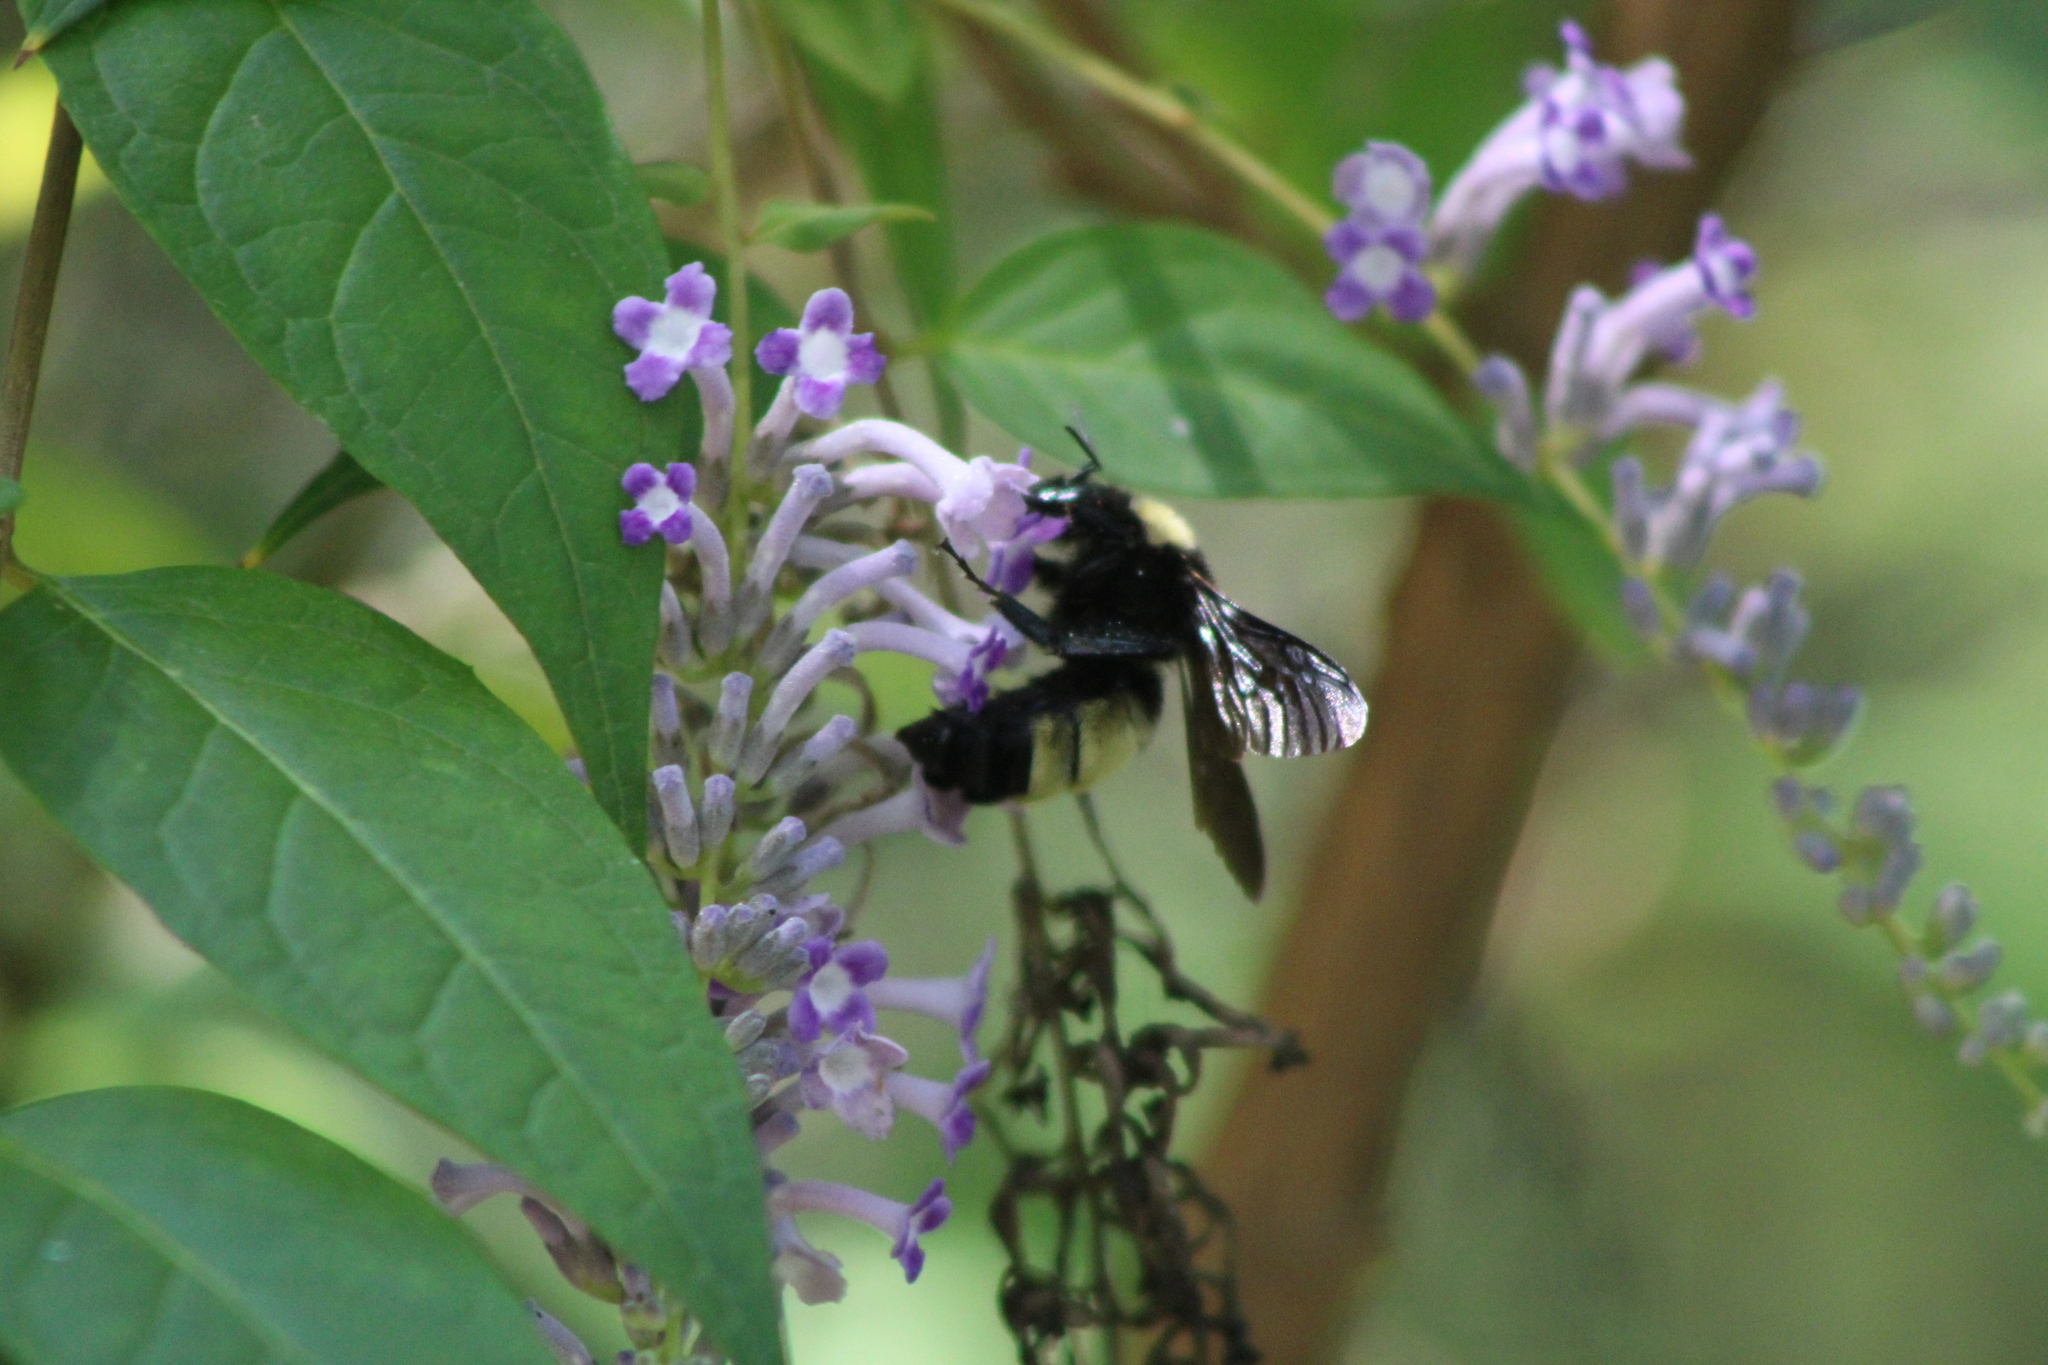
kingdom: Animalia
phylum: Arthropoda
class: Insecta
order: Hymenoptera
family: Apidae
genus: Bombus
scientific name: Bombus pensylvanicus
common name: Bumble bee
